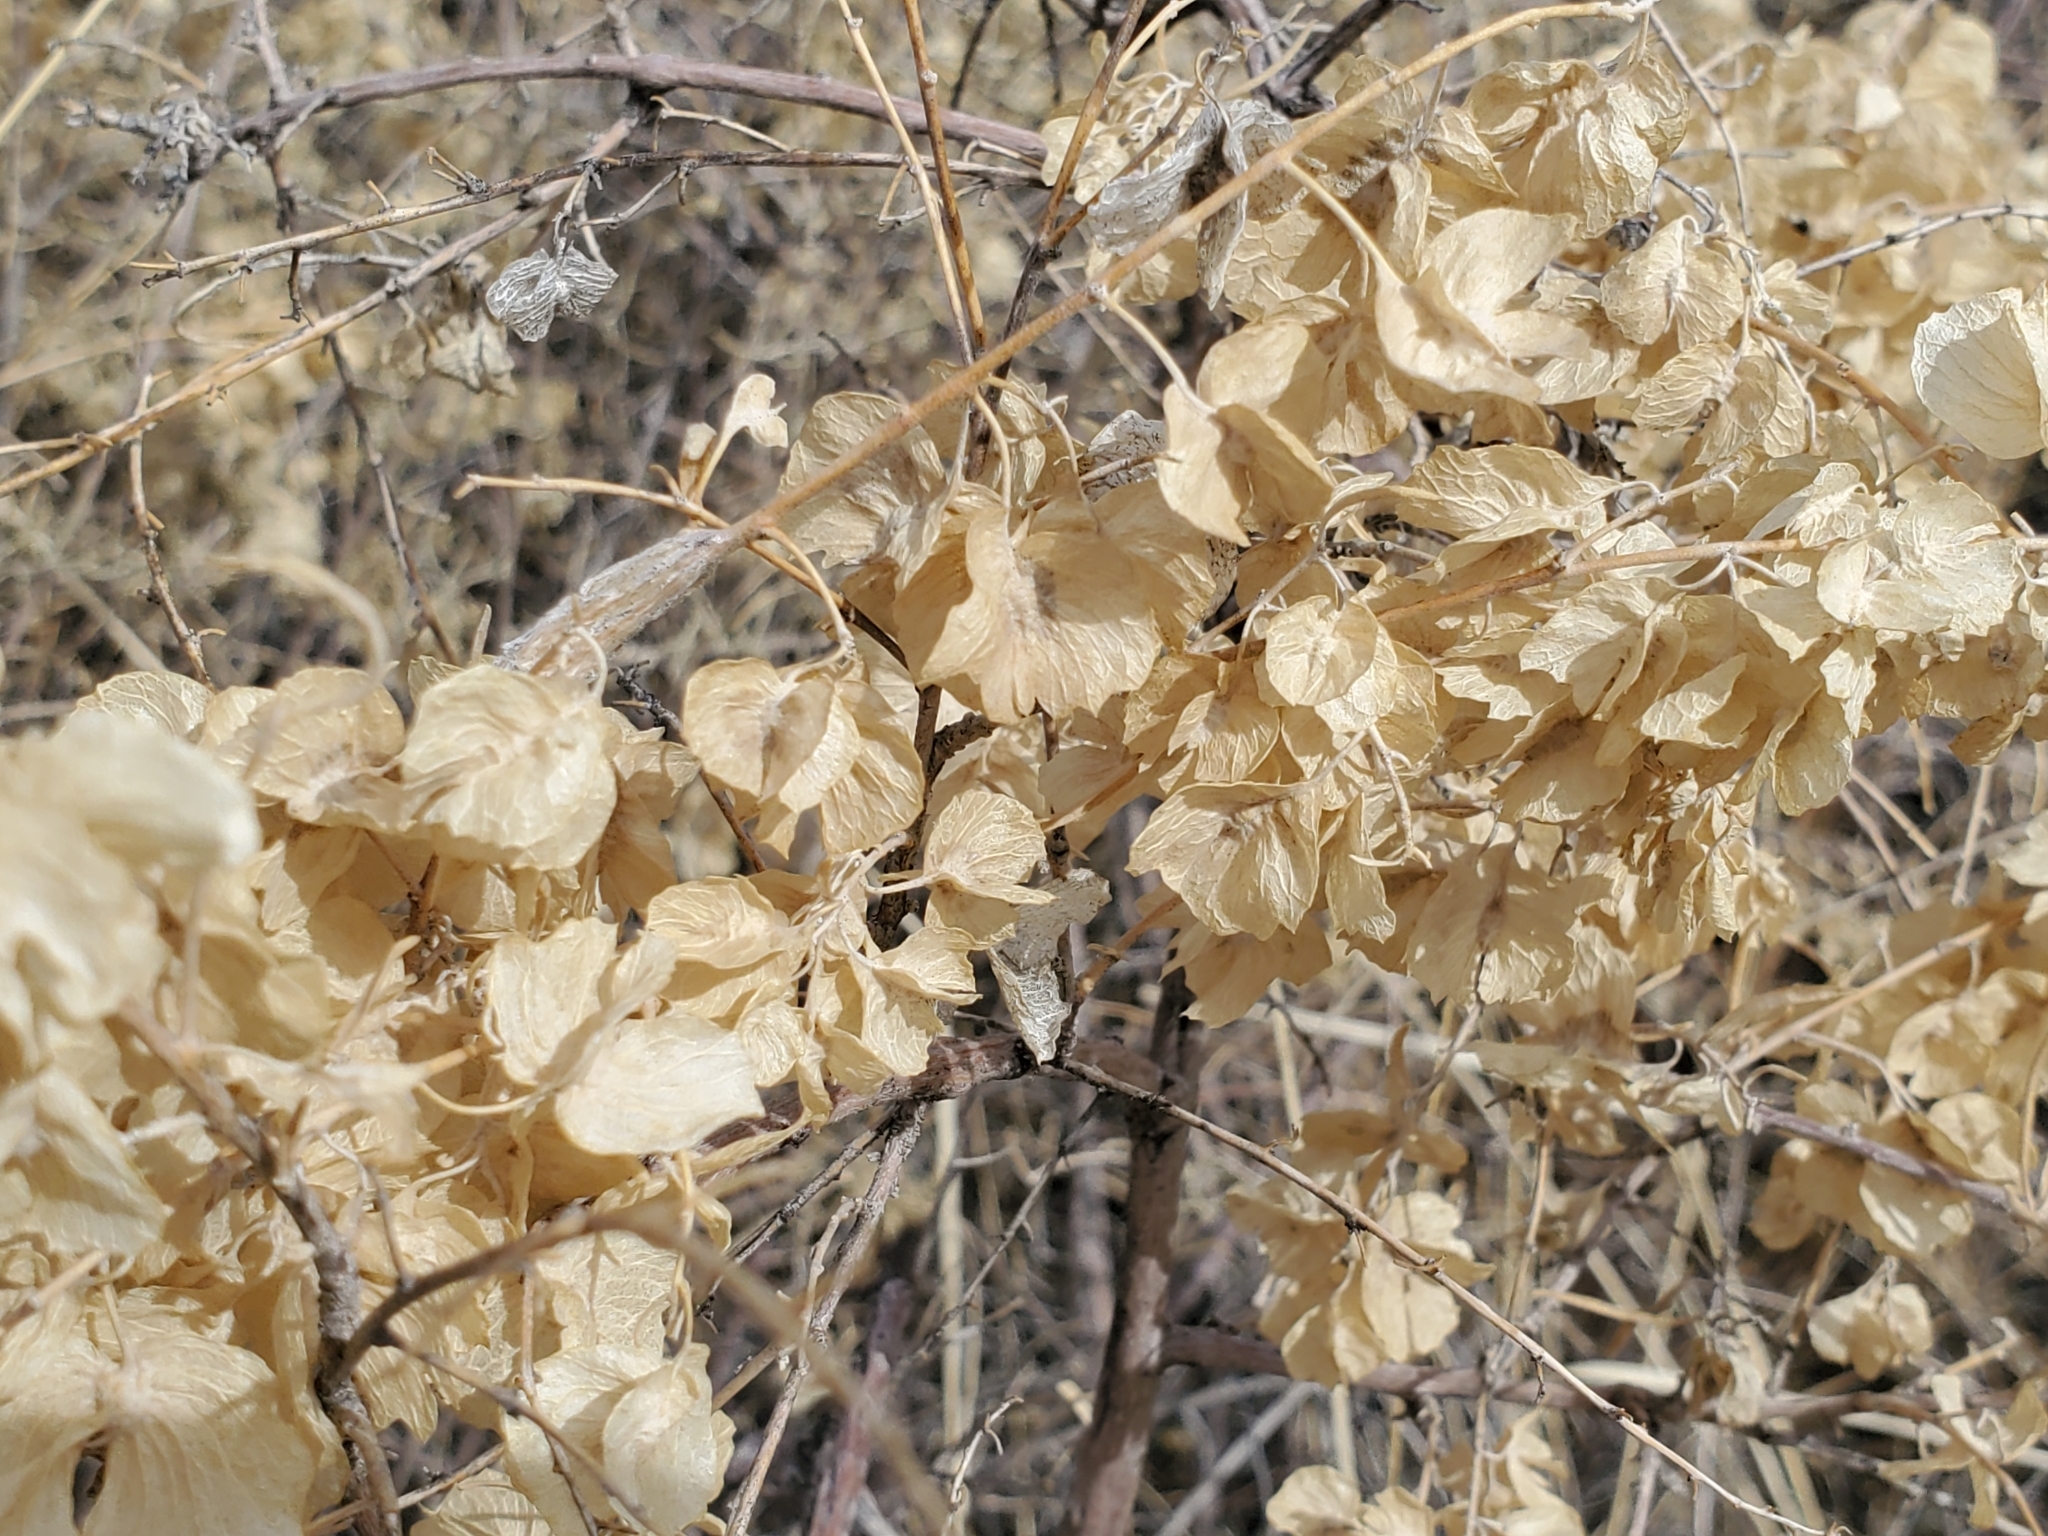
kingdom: Plantae
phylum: Tracheophyta
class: Magnoliopsida
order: Caryophyllales
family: Amaranthaceae
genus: Atriplex
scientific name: Atriplex canescens
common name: Four-wing saltbush
